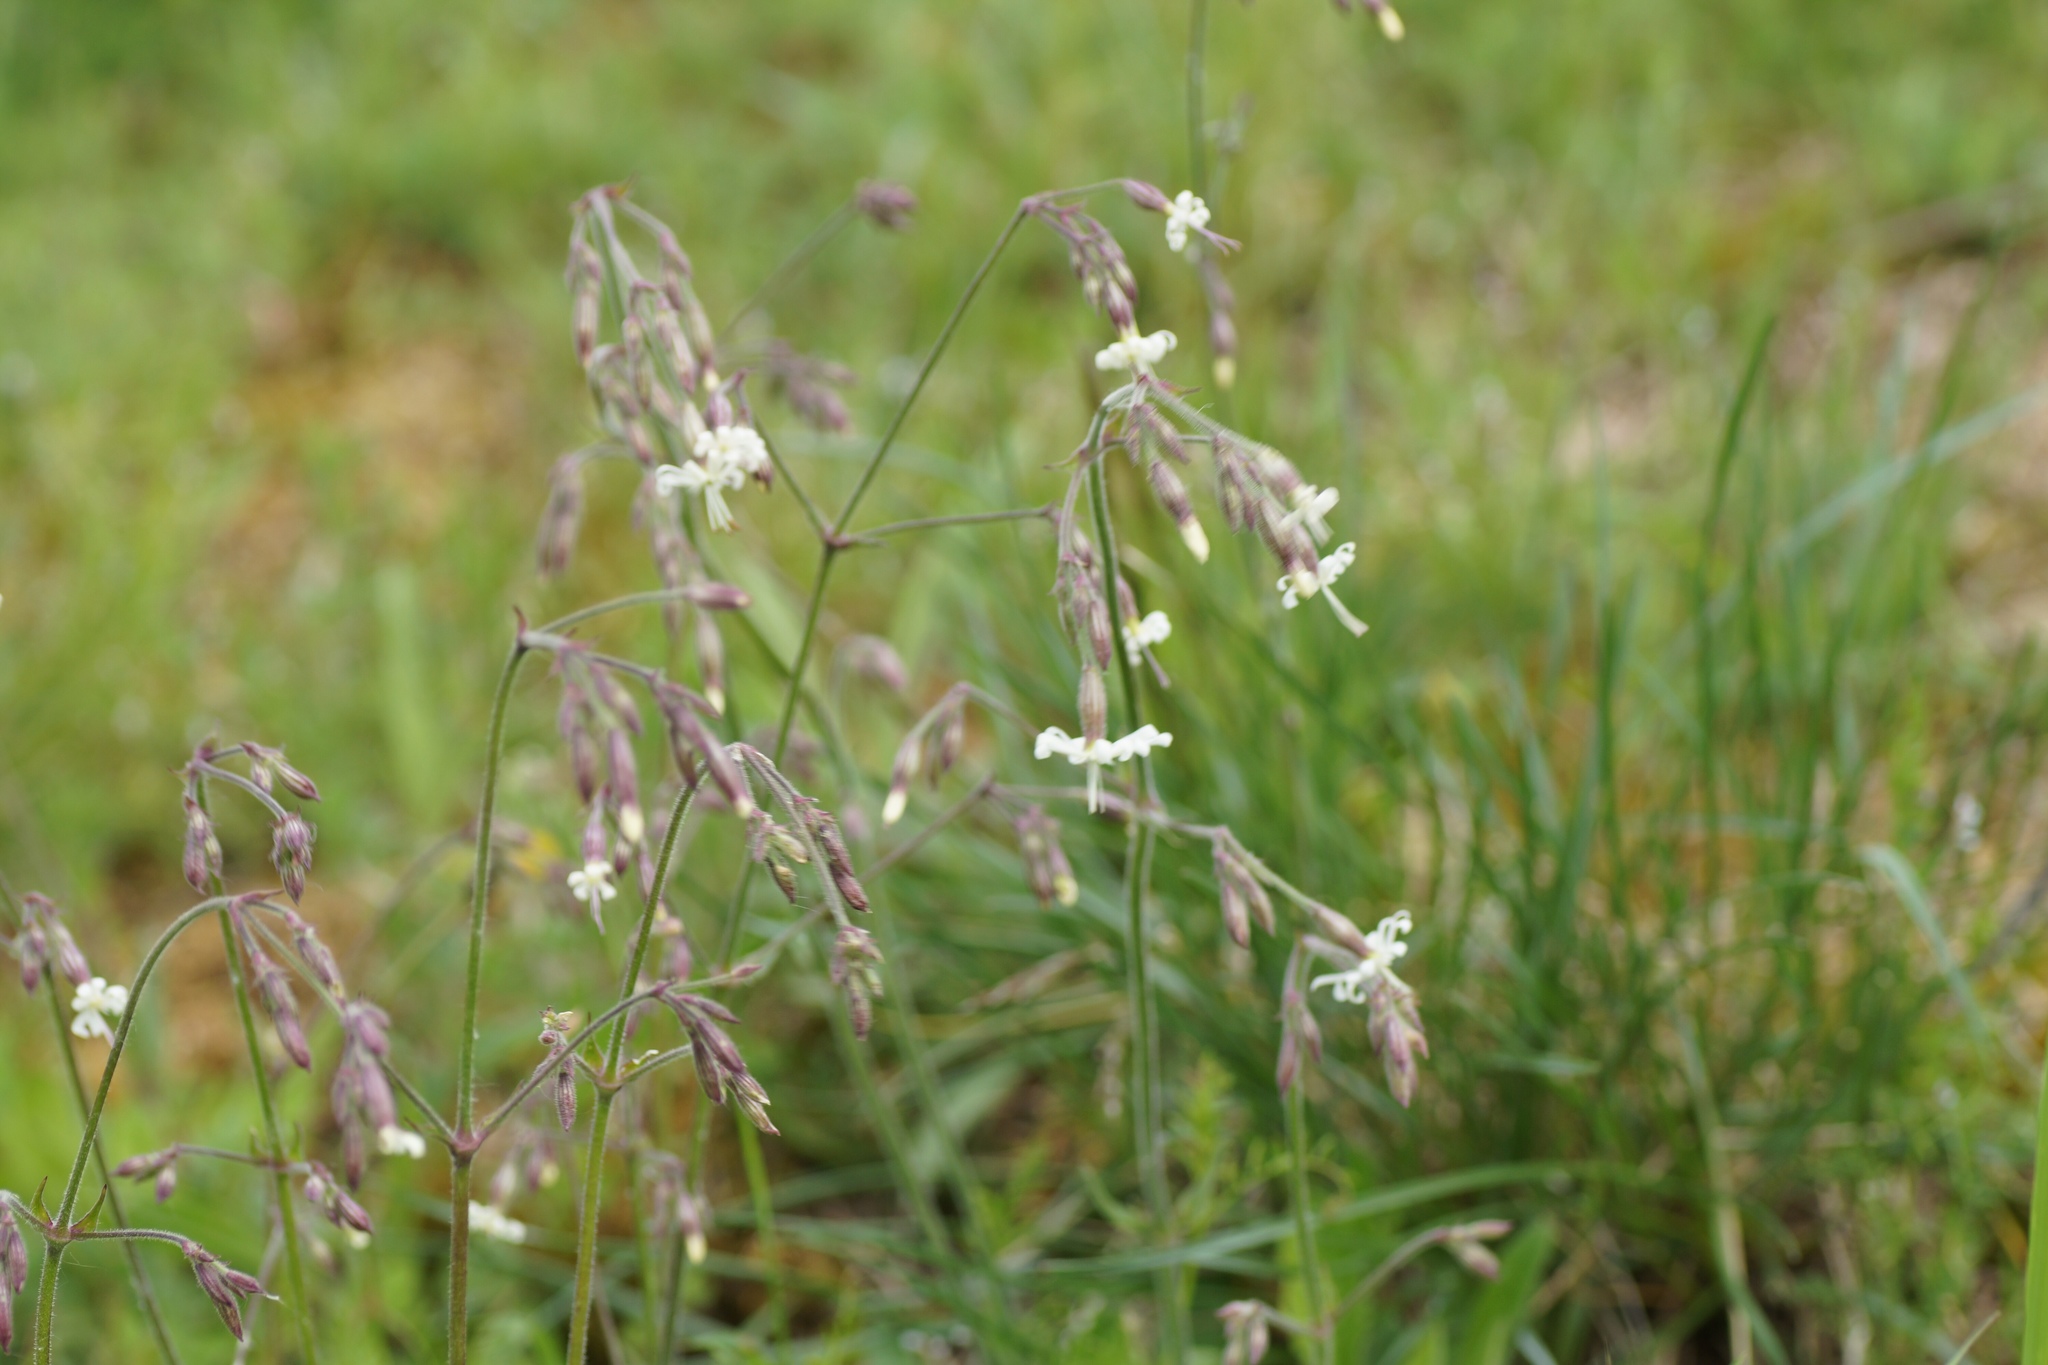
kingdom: Plantae
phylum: Tracheophyta
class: Magnoliopsida
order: Caryophyllales
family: Caryophyllaceae
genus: Silene
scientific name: Silene nutans
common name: Nottingham catchfly
